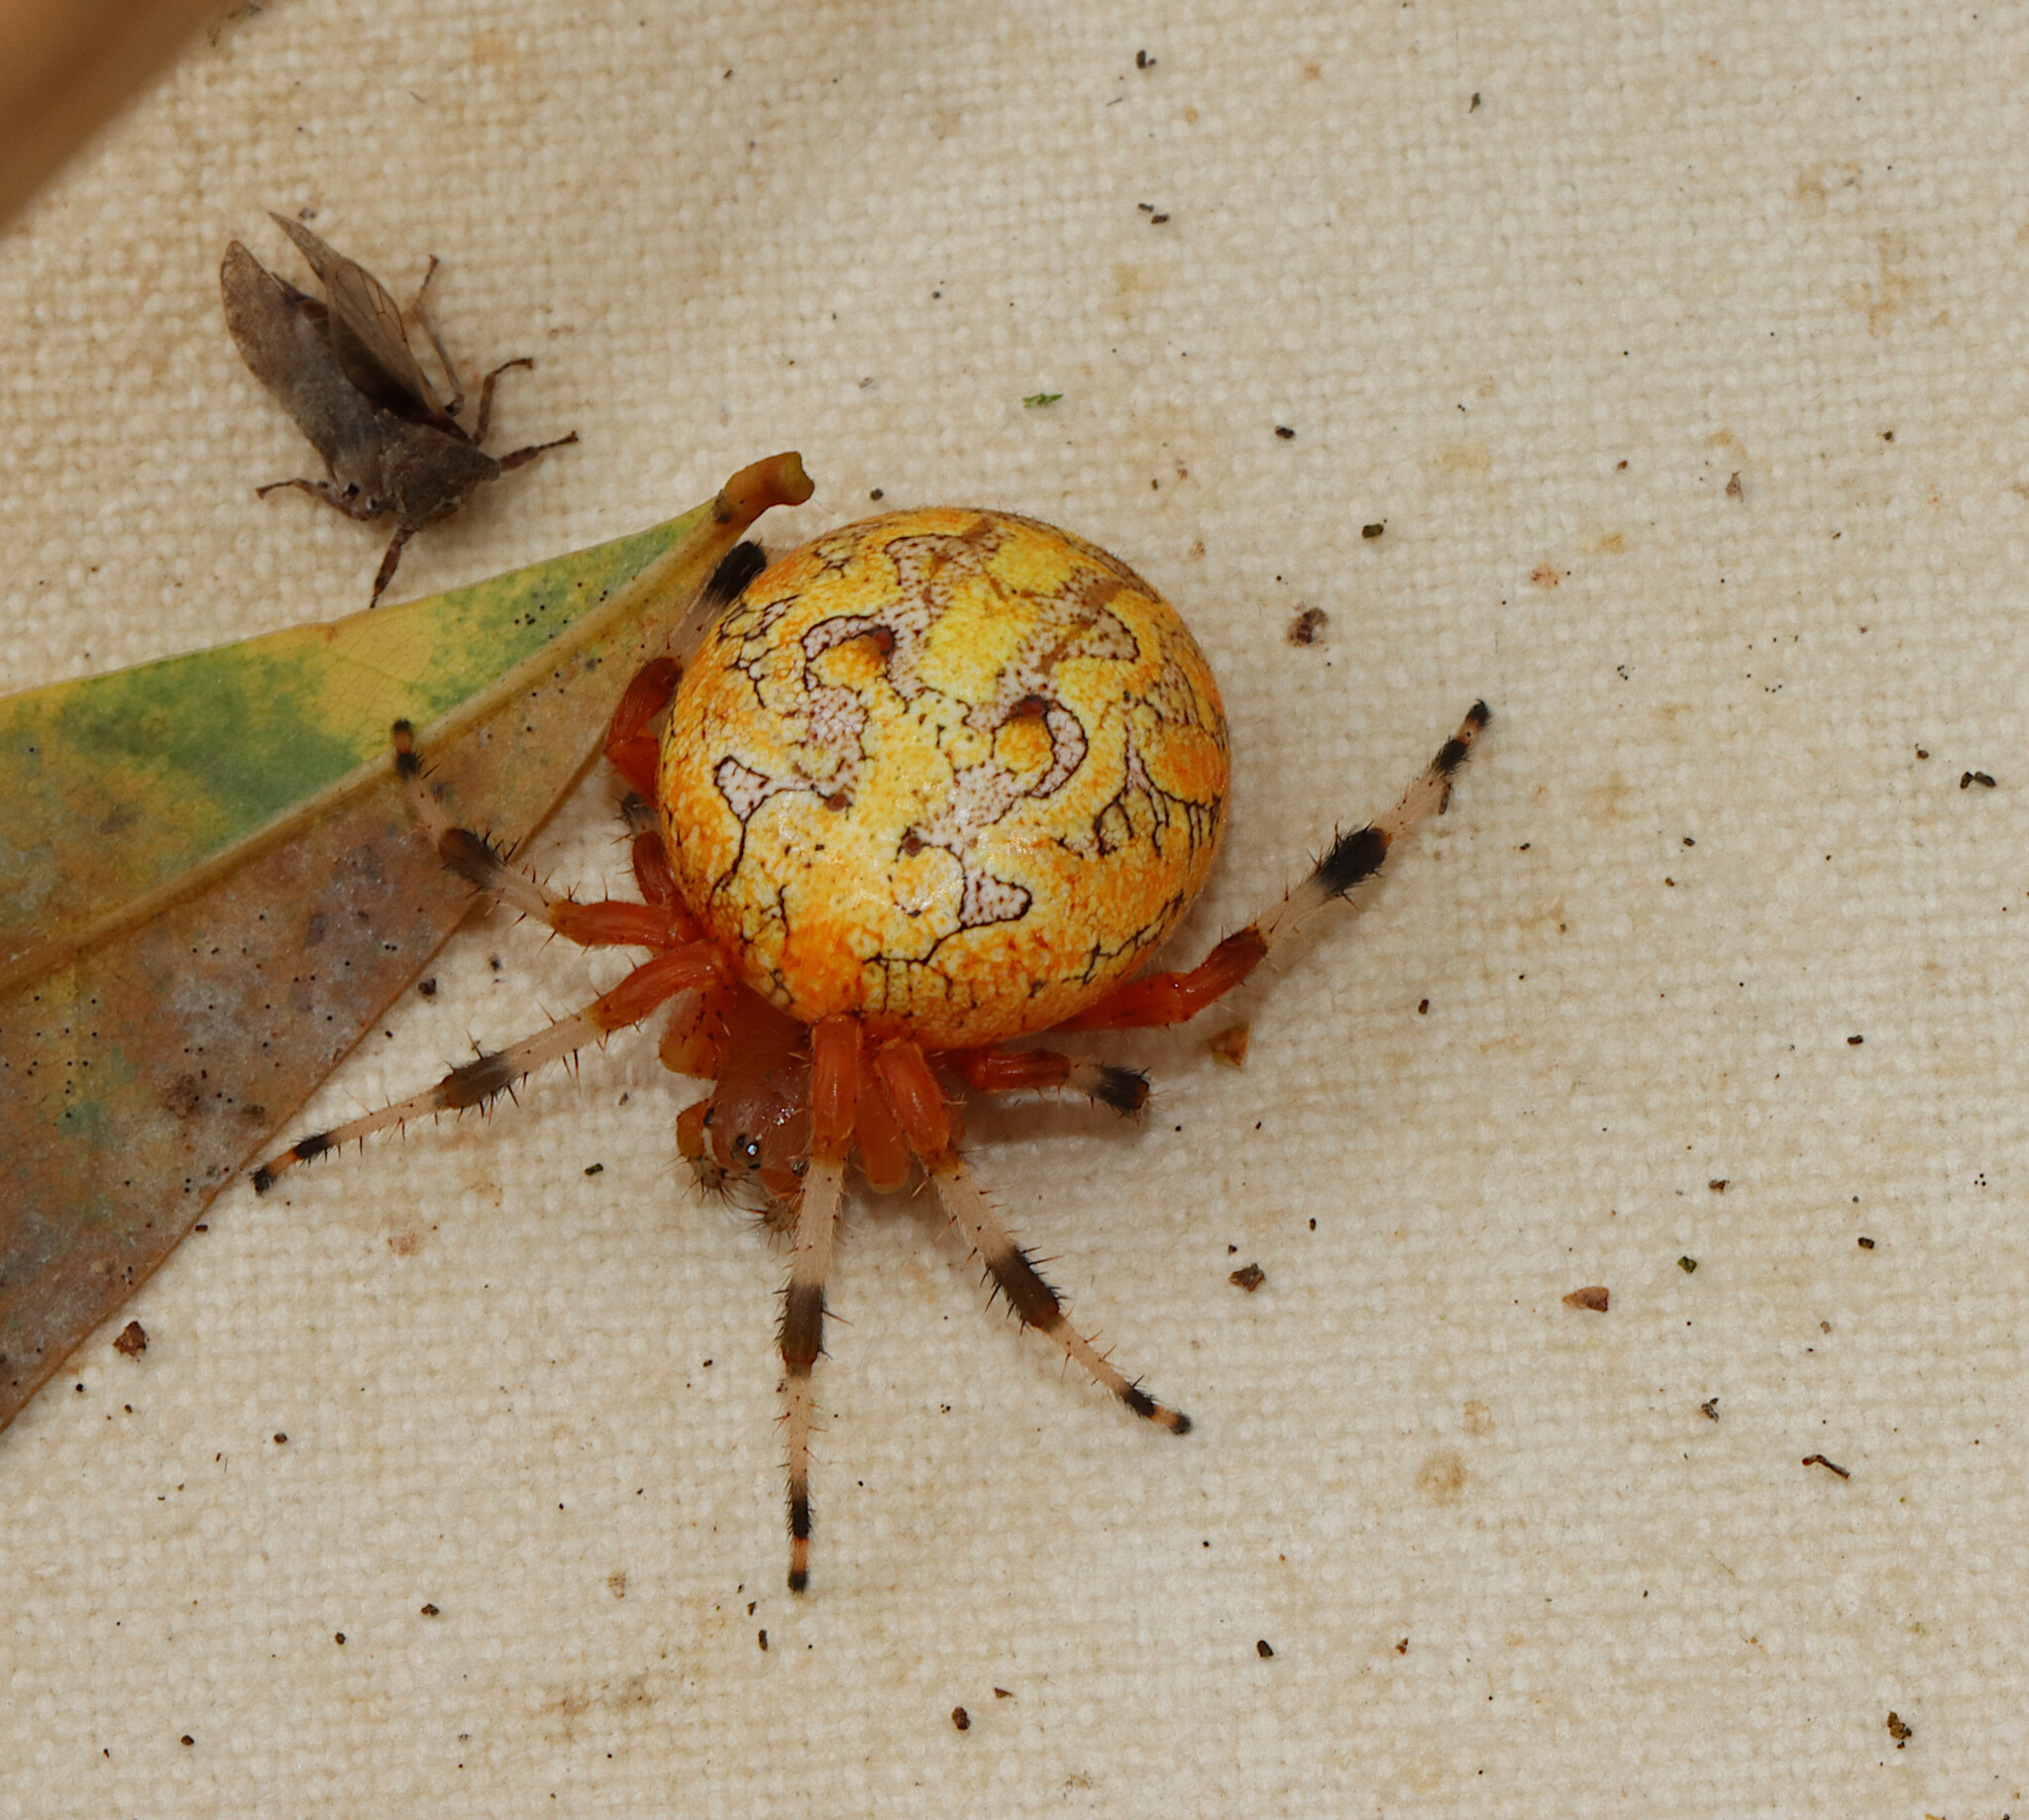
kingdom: Animalia
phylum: Arthropoda
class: Arachnida
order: Araneae
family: Araneidae
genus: Araneus
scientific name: Araneus marmoreus
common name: Marbled orbweaver
